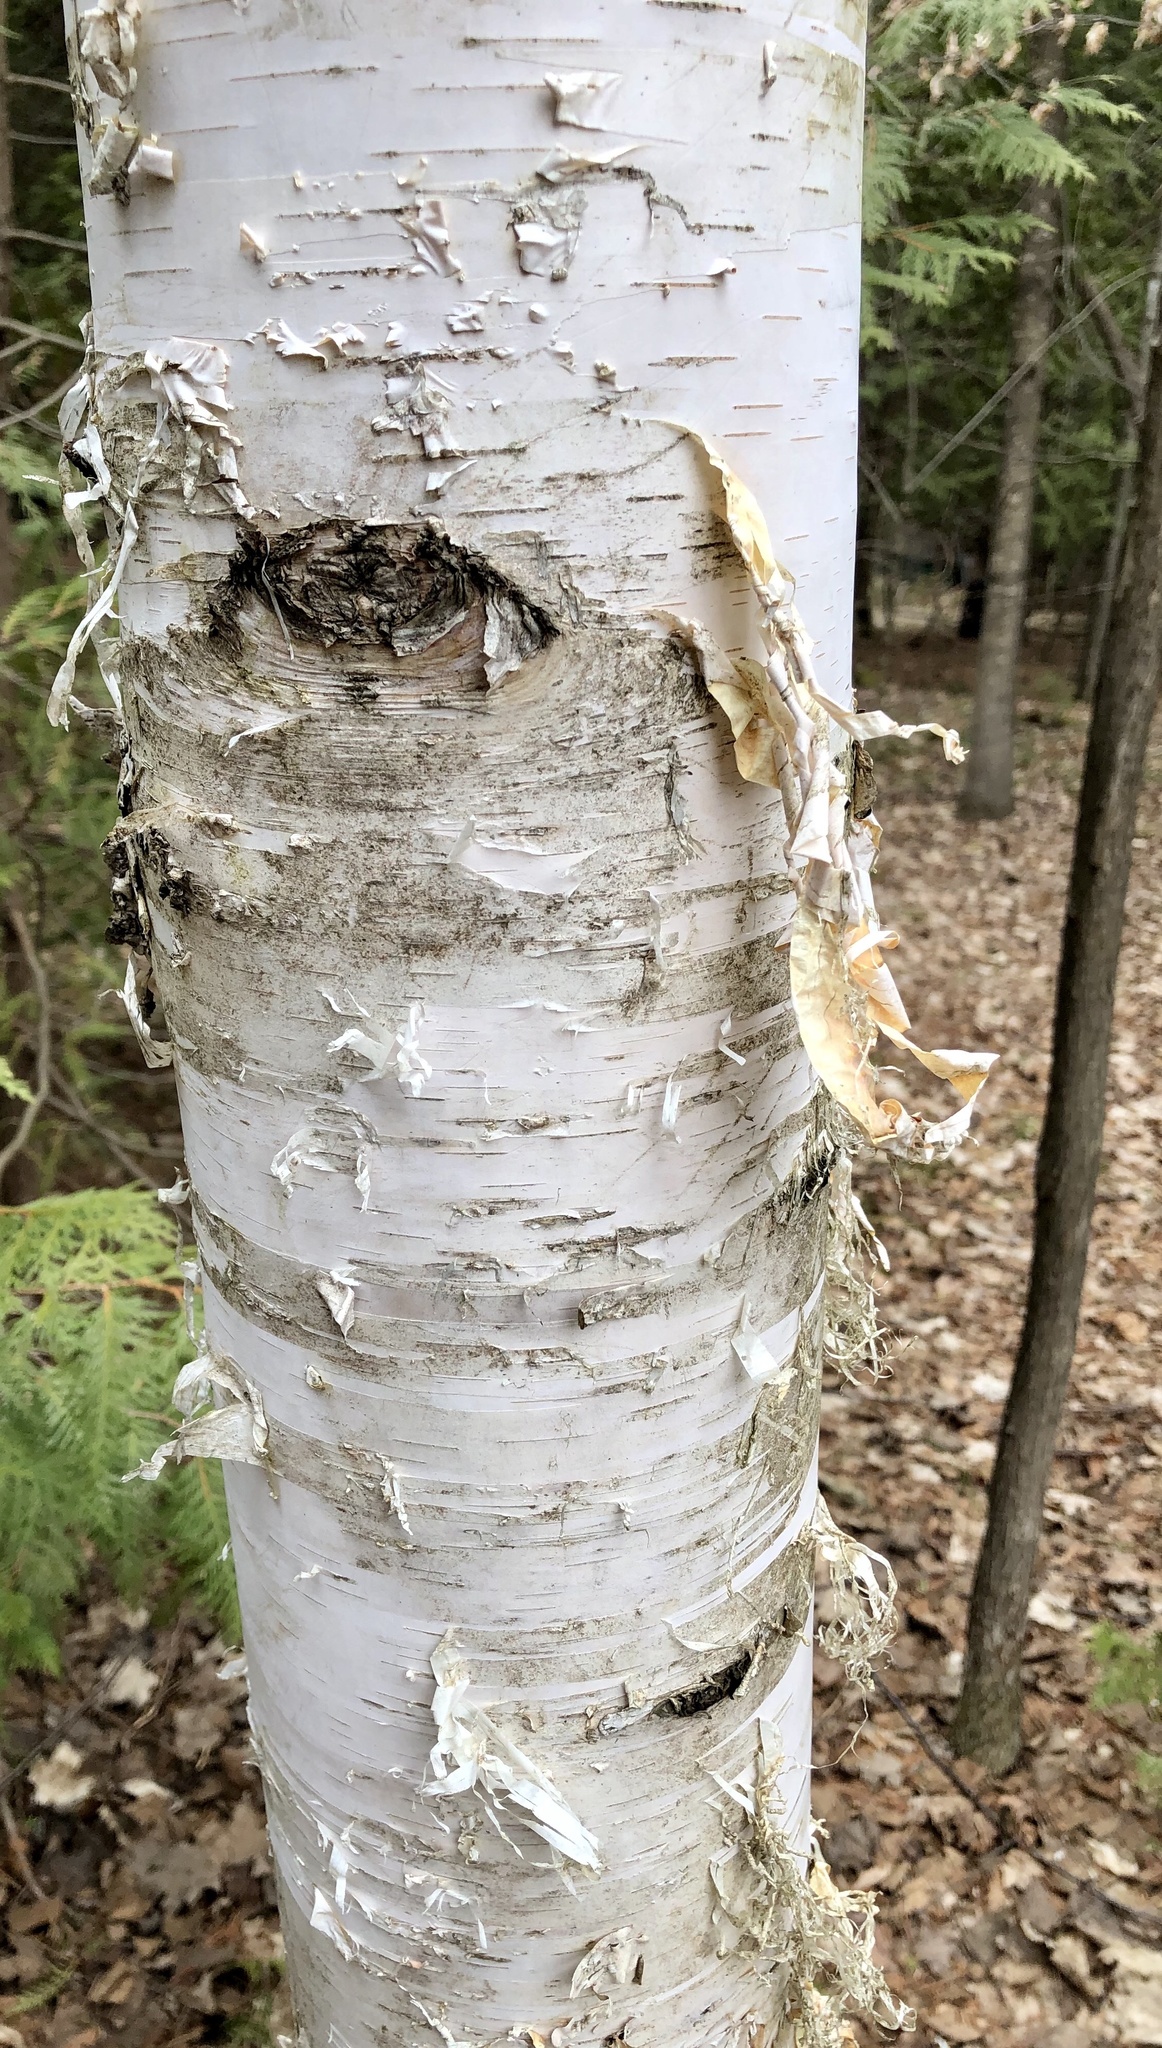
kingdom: Plantae
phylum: Tracheophyta
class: Magnoliopsida
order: Fagales
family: Betulaceae
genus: Betula
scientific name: Betula papyrifera
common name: Paper birch
